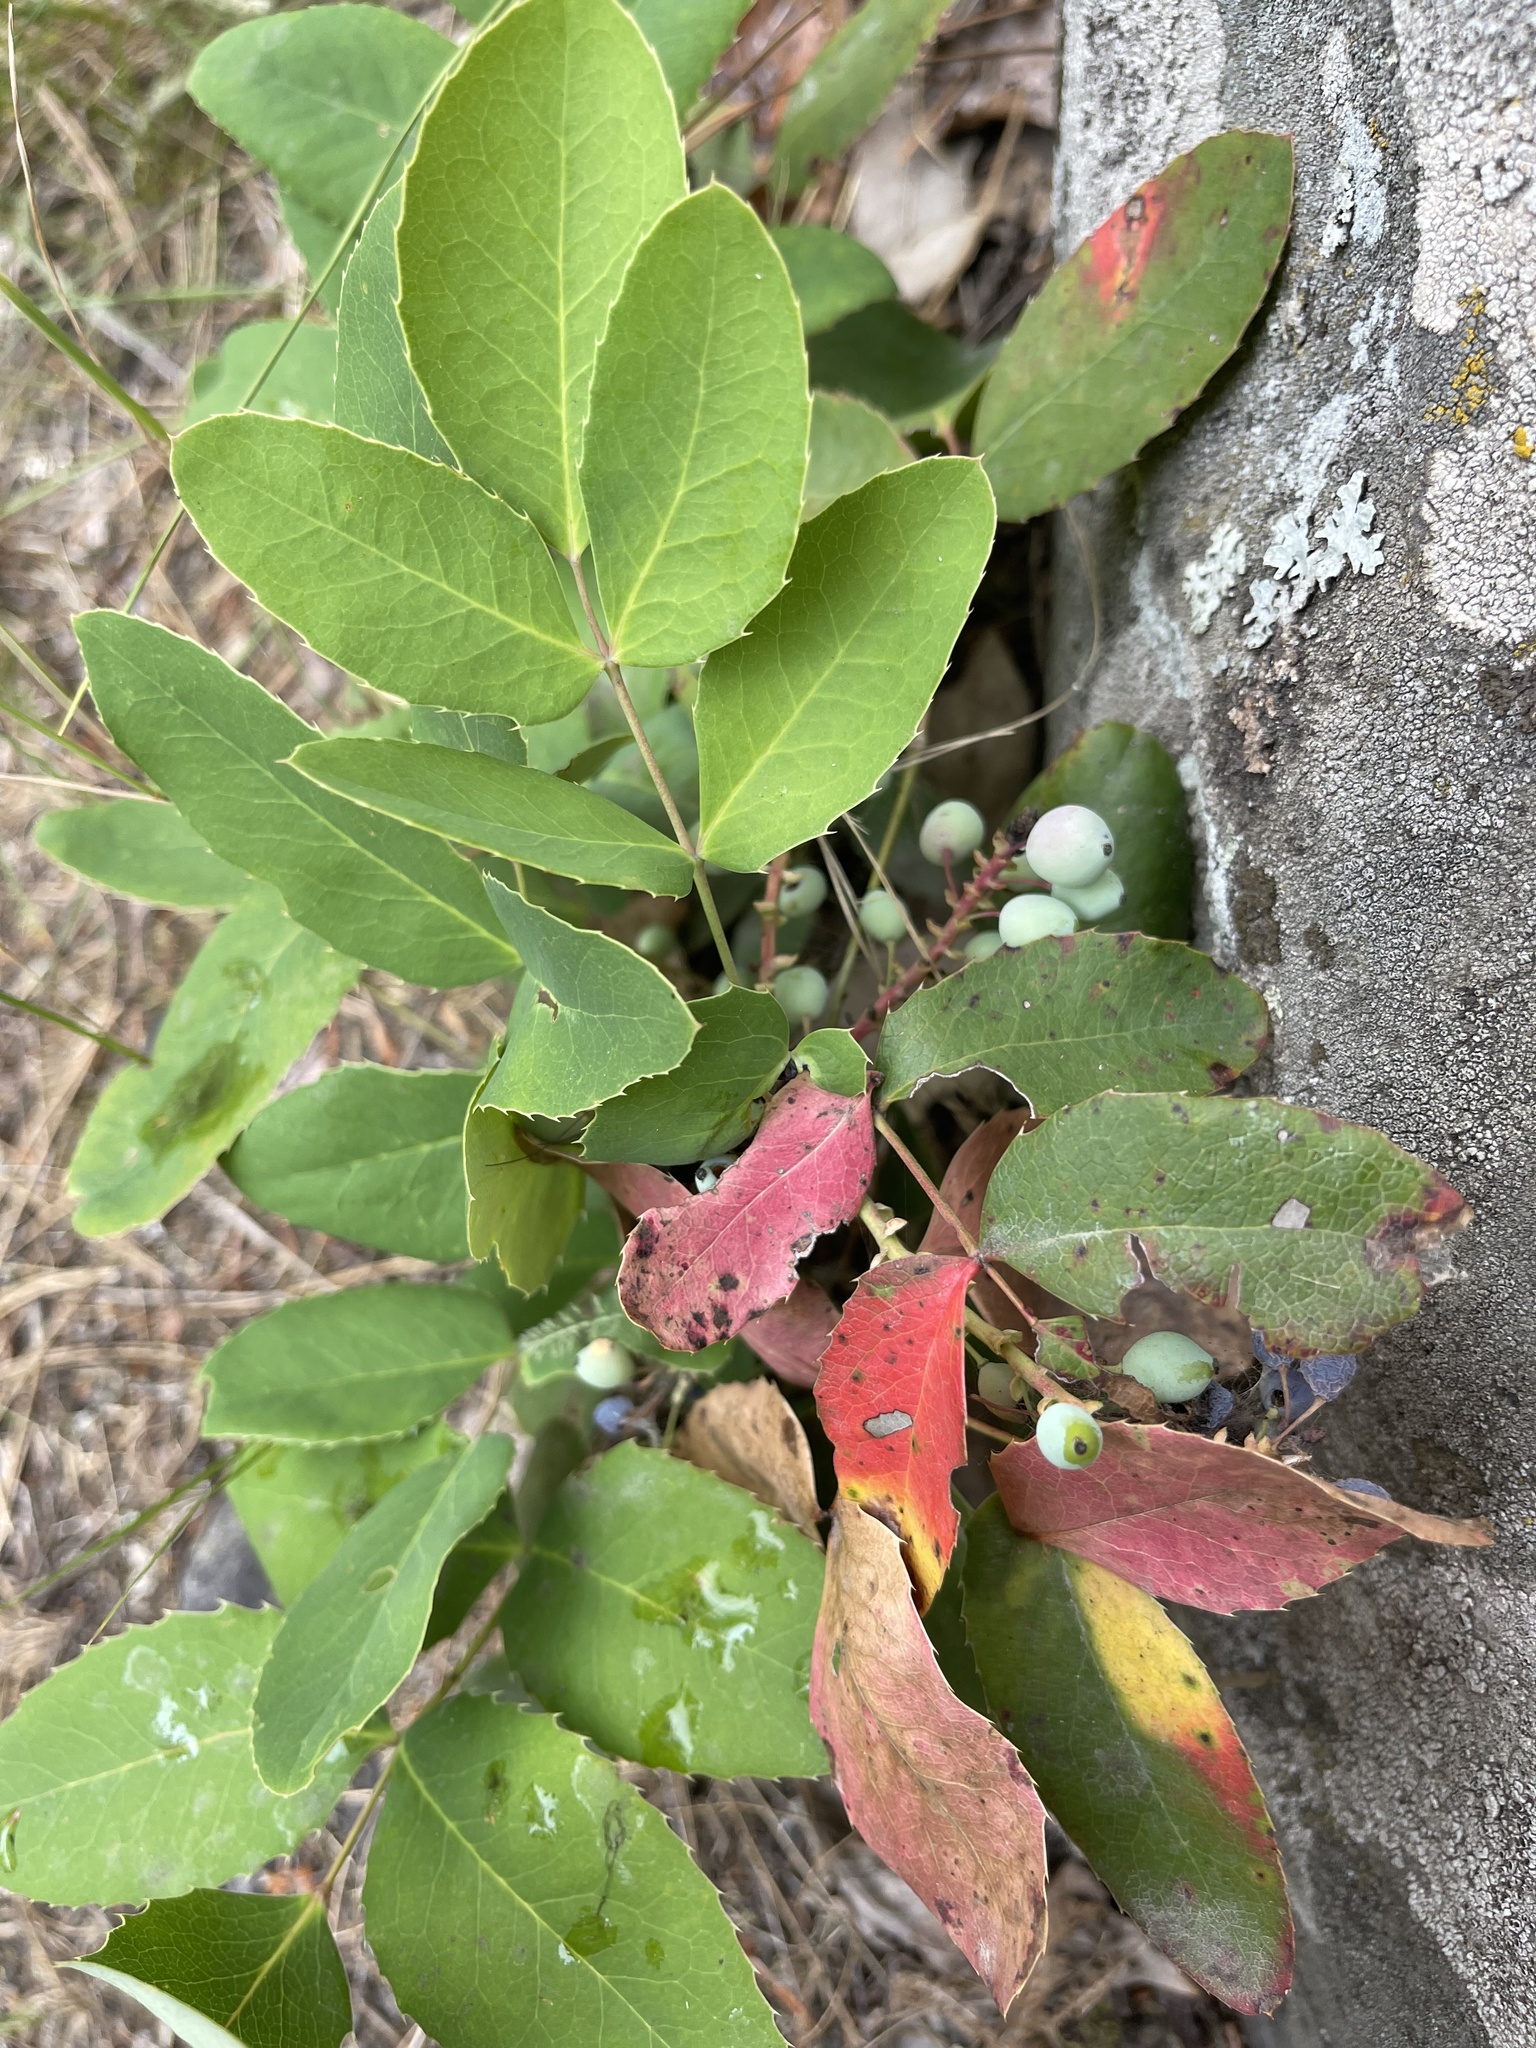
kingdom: Plantae
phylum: Tracheophyta
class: Magnoliopsida
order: Ranunculales
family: Berberidaceae
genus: Mahonia
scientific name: Mahonia repens
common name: Creeping oregon-grape
